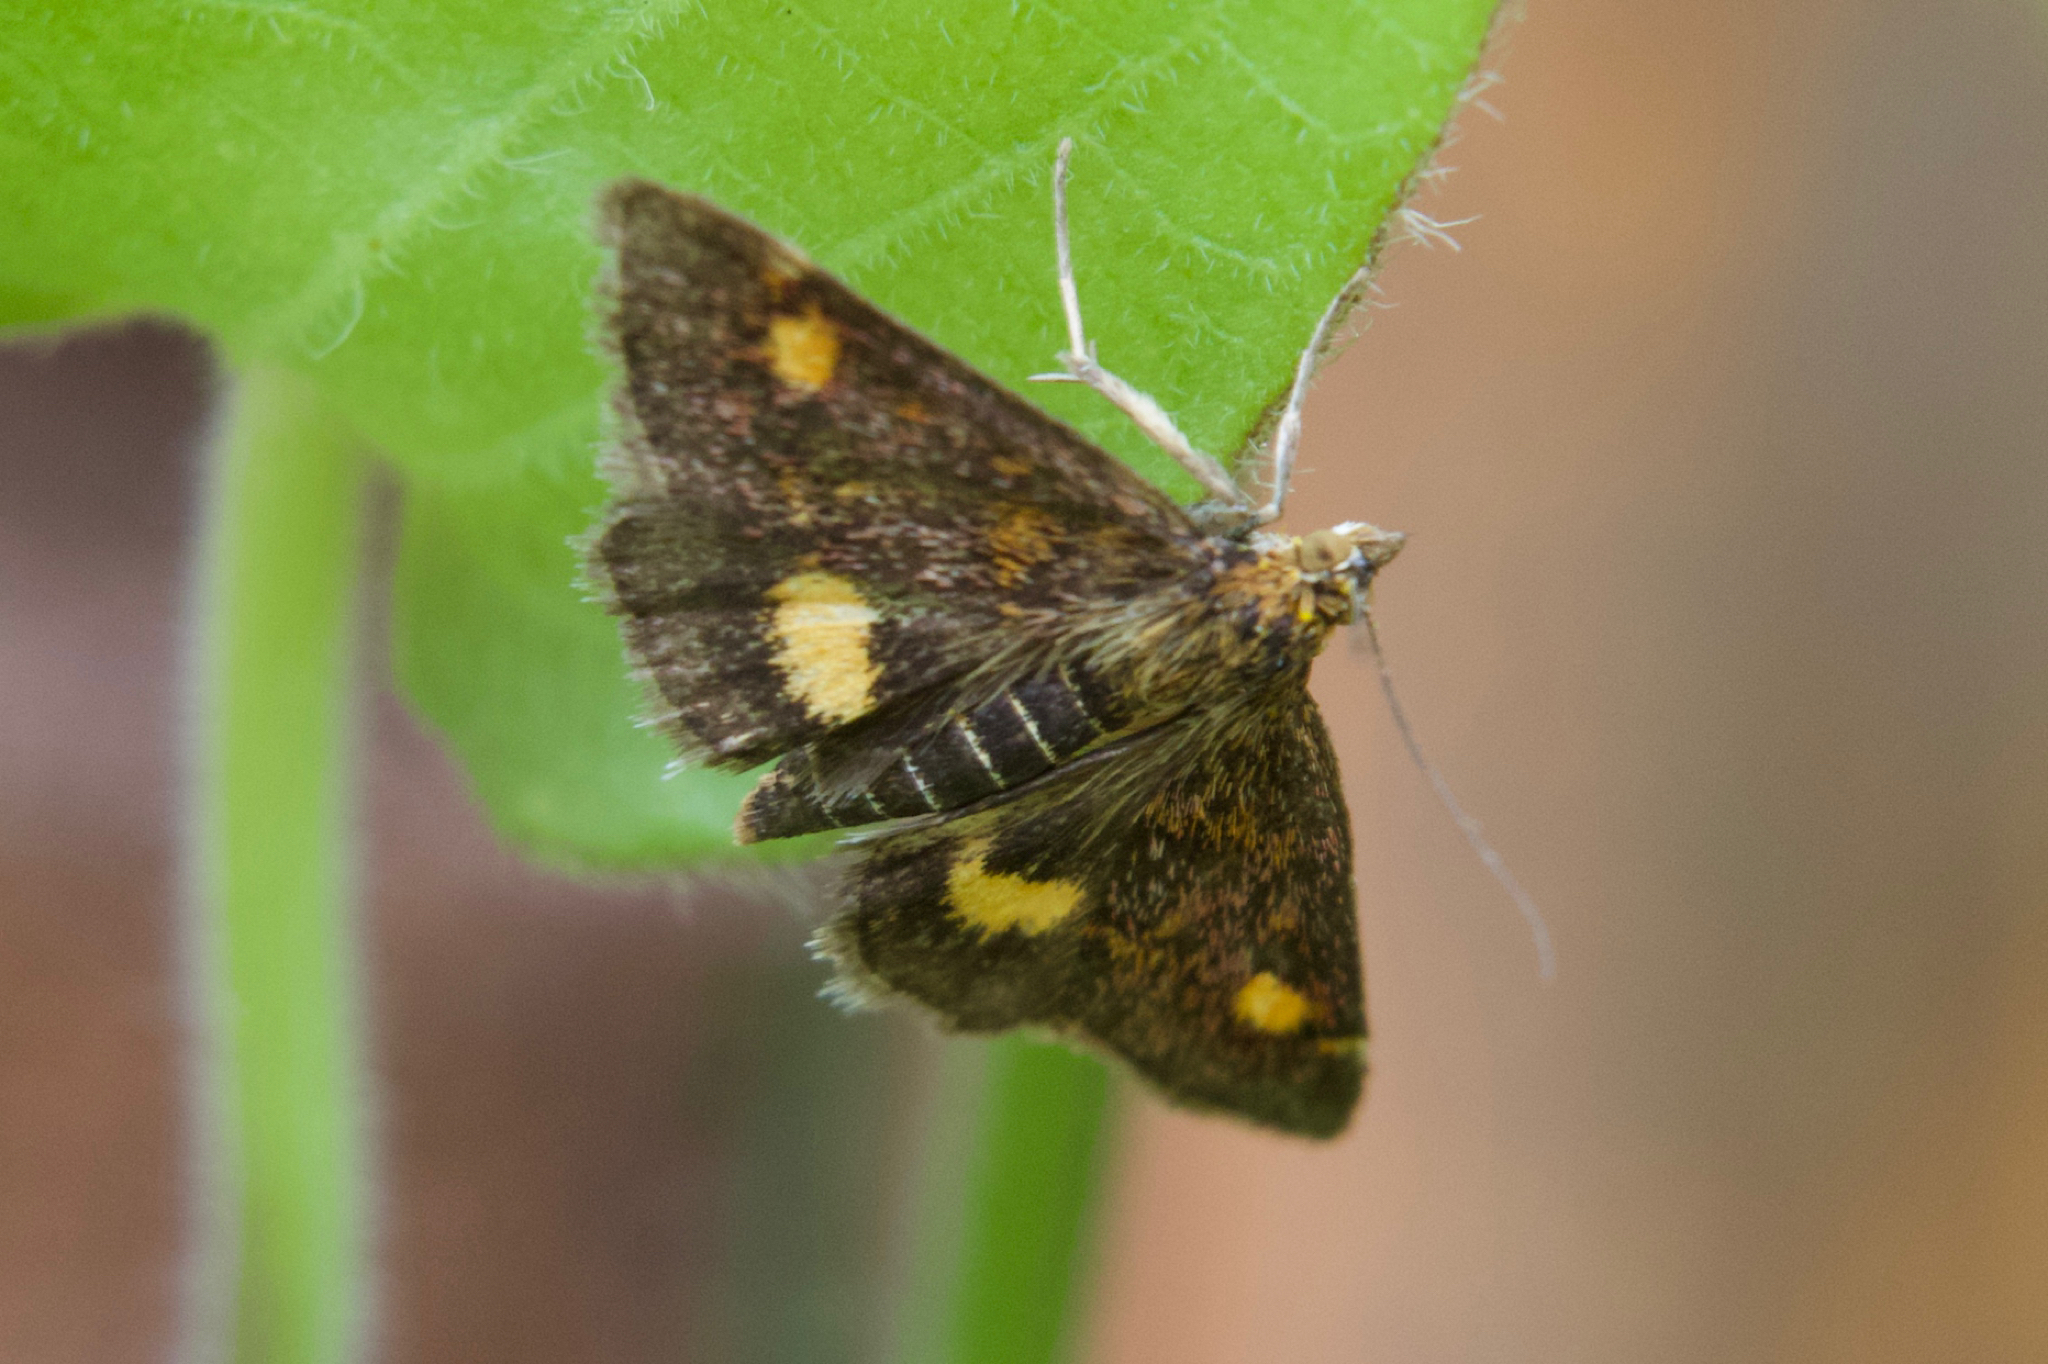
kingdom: Animalia
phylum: Arthropoda
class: Insecta
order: Lepidoptera
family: Crambidae
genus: Pyrausta
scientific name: Pyrausta aurata
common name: Small purple & gold
